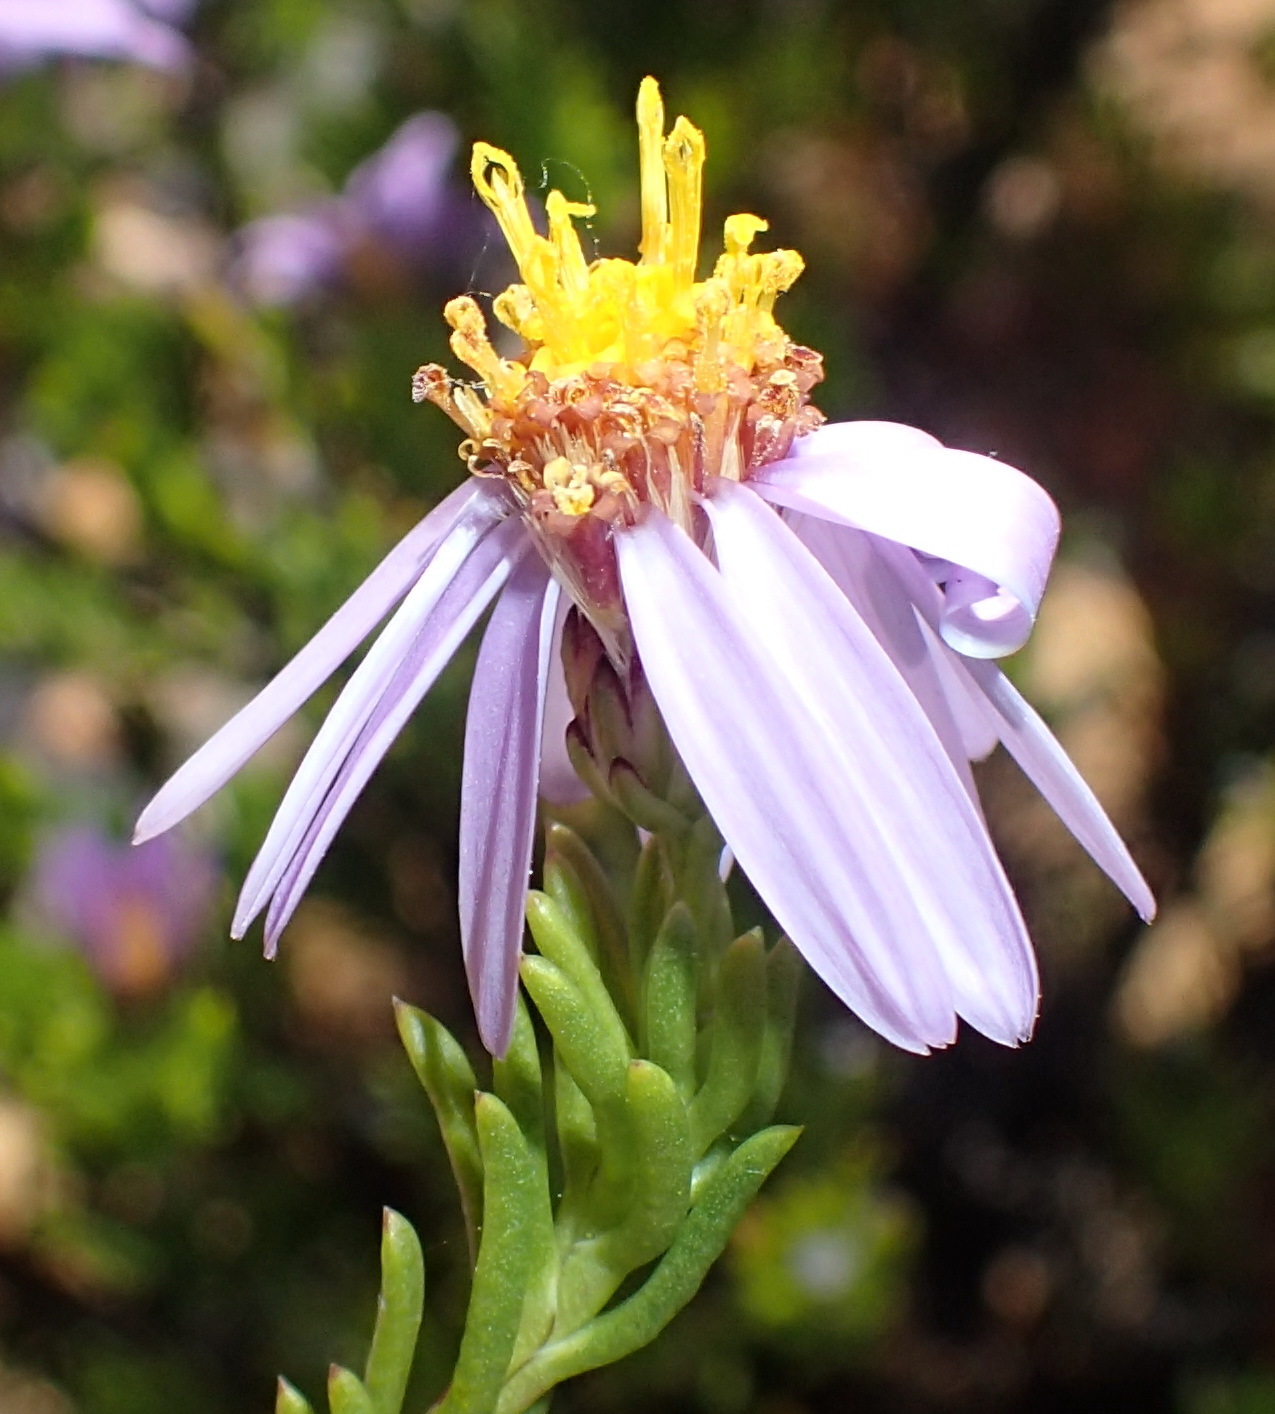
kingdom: Plantae
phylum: Tracheophyta
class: Magnoliopsida
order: Asterales
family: Asteraceae
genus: Felicia
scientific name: Felicia filifolia
